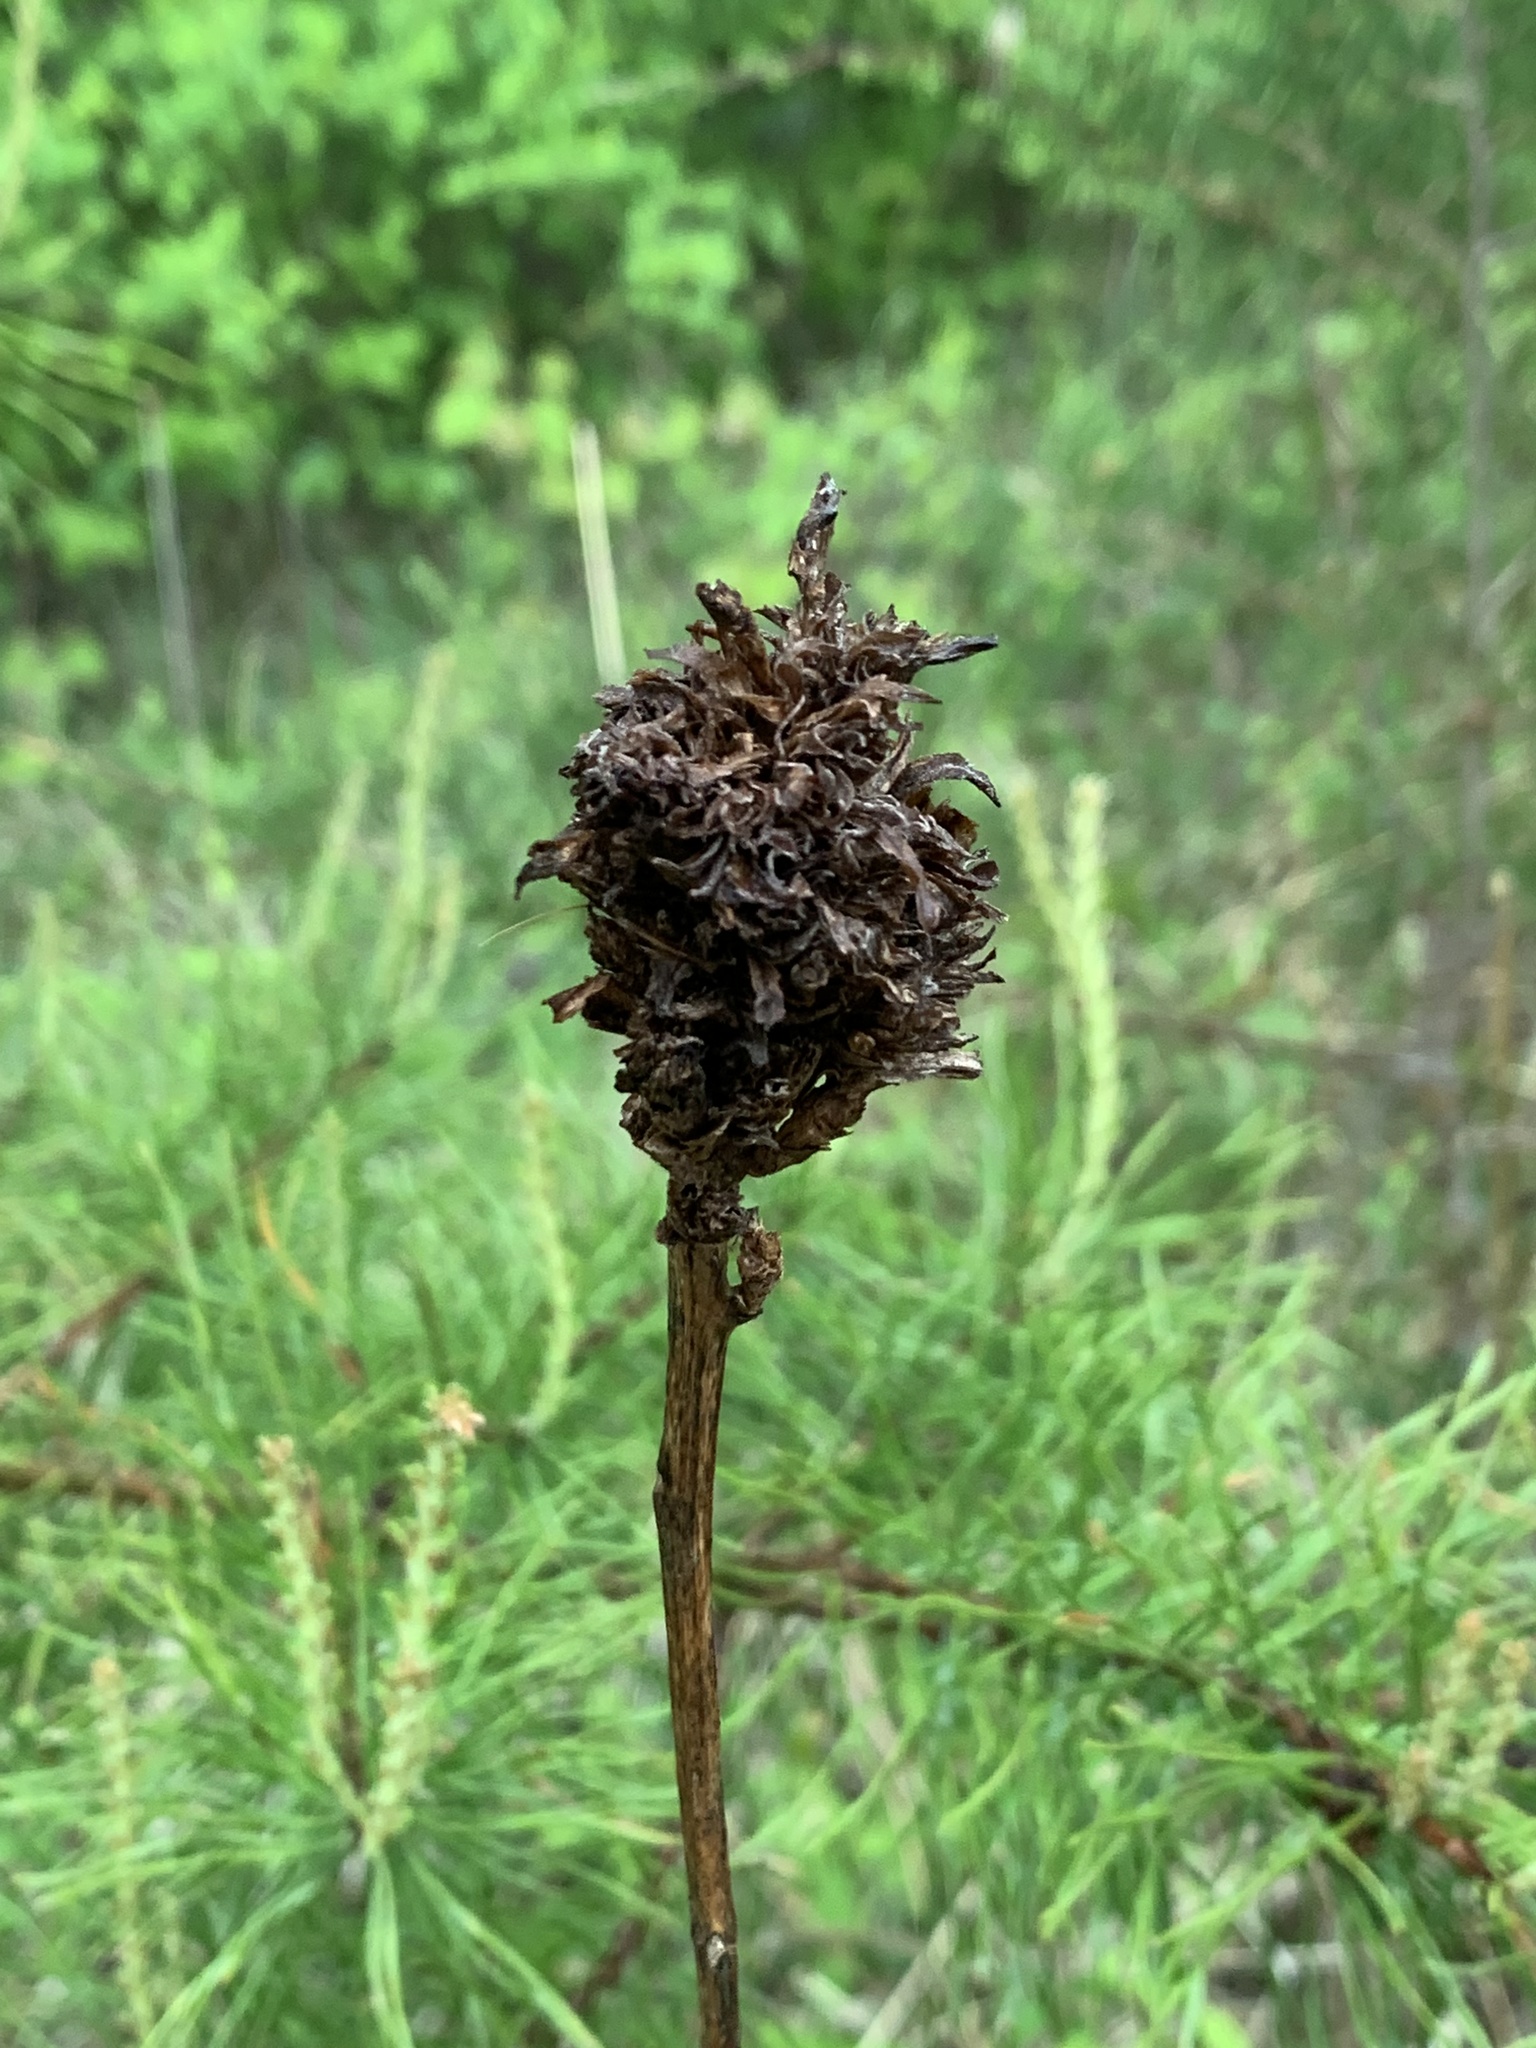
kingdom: Animalia
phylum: Arthropoda
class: Insecta
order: Diptera
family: Cecidomyiidae
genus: Rhopalomyia
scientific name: Rhopalomyia solidaginis
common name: Goldenrod bunch gall midge
